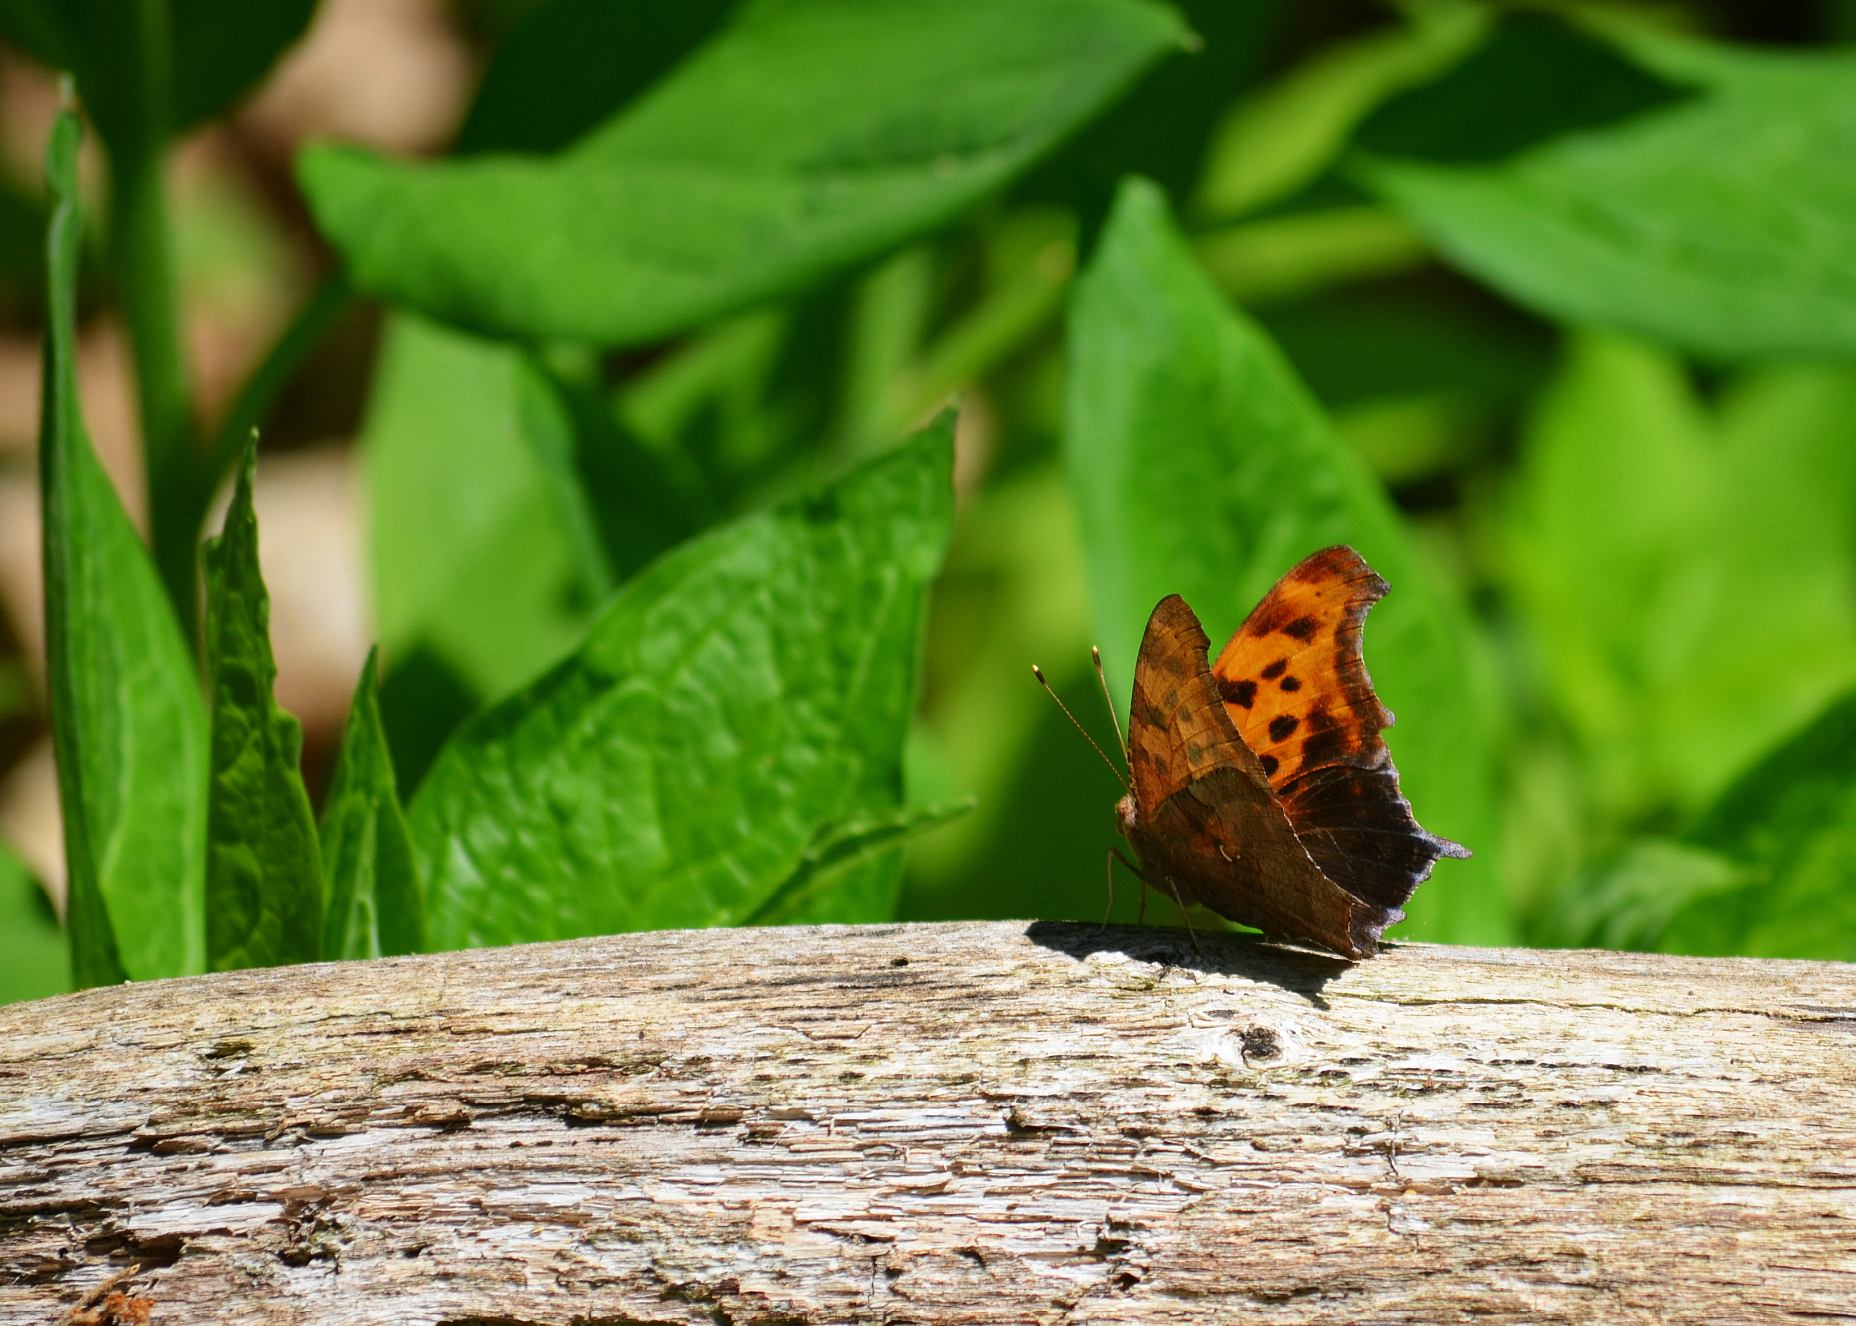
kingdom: Animalia
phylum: Arthropoda
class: Insecta
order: Lepidoptera
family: Nymphalidae
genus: Polygonia
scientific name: Polygonia interrogationis
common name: Question mark
